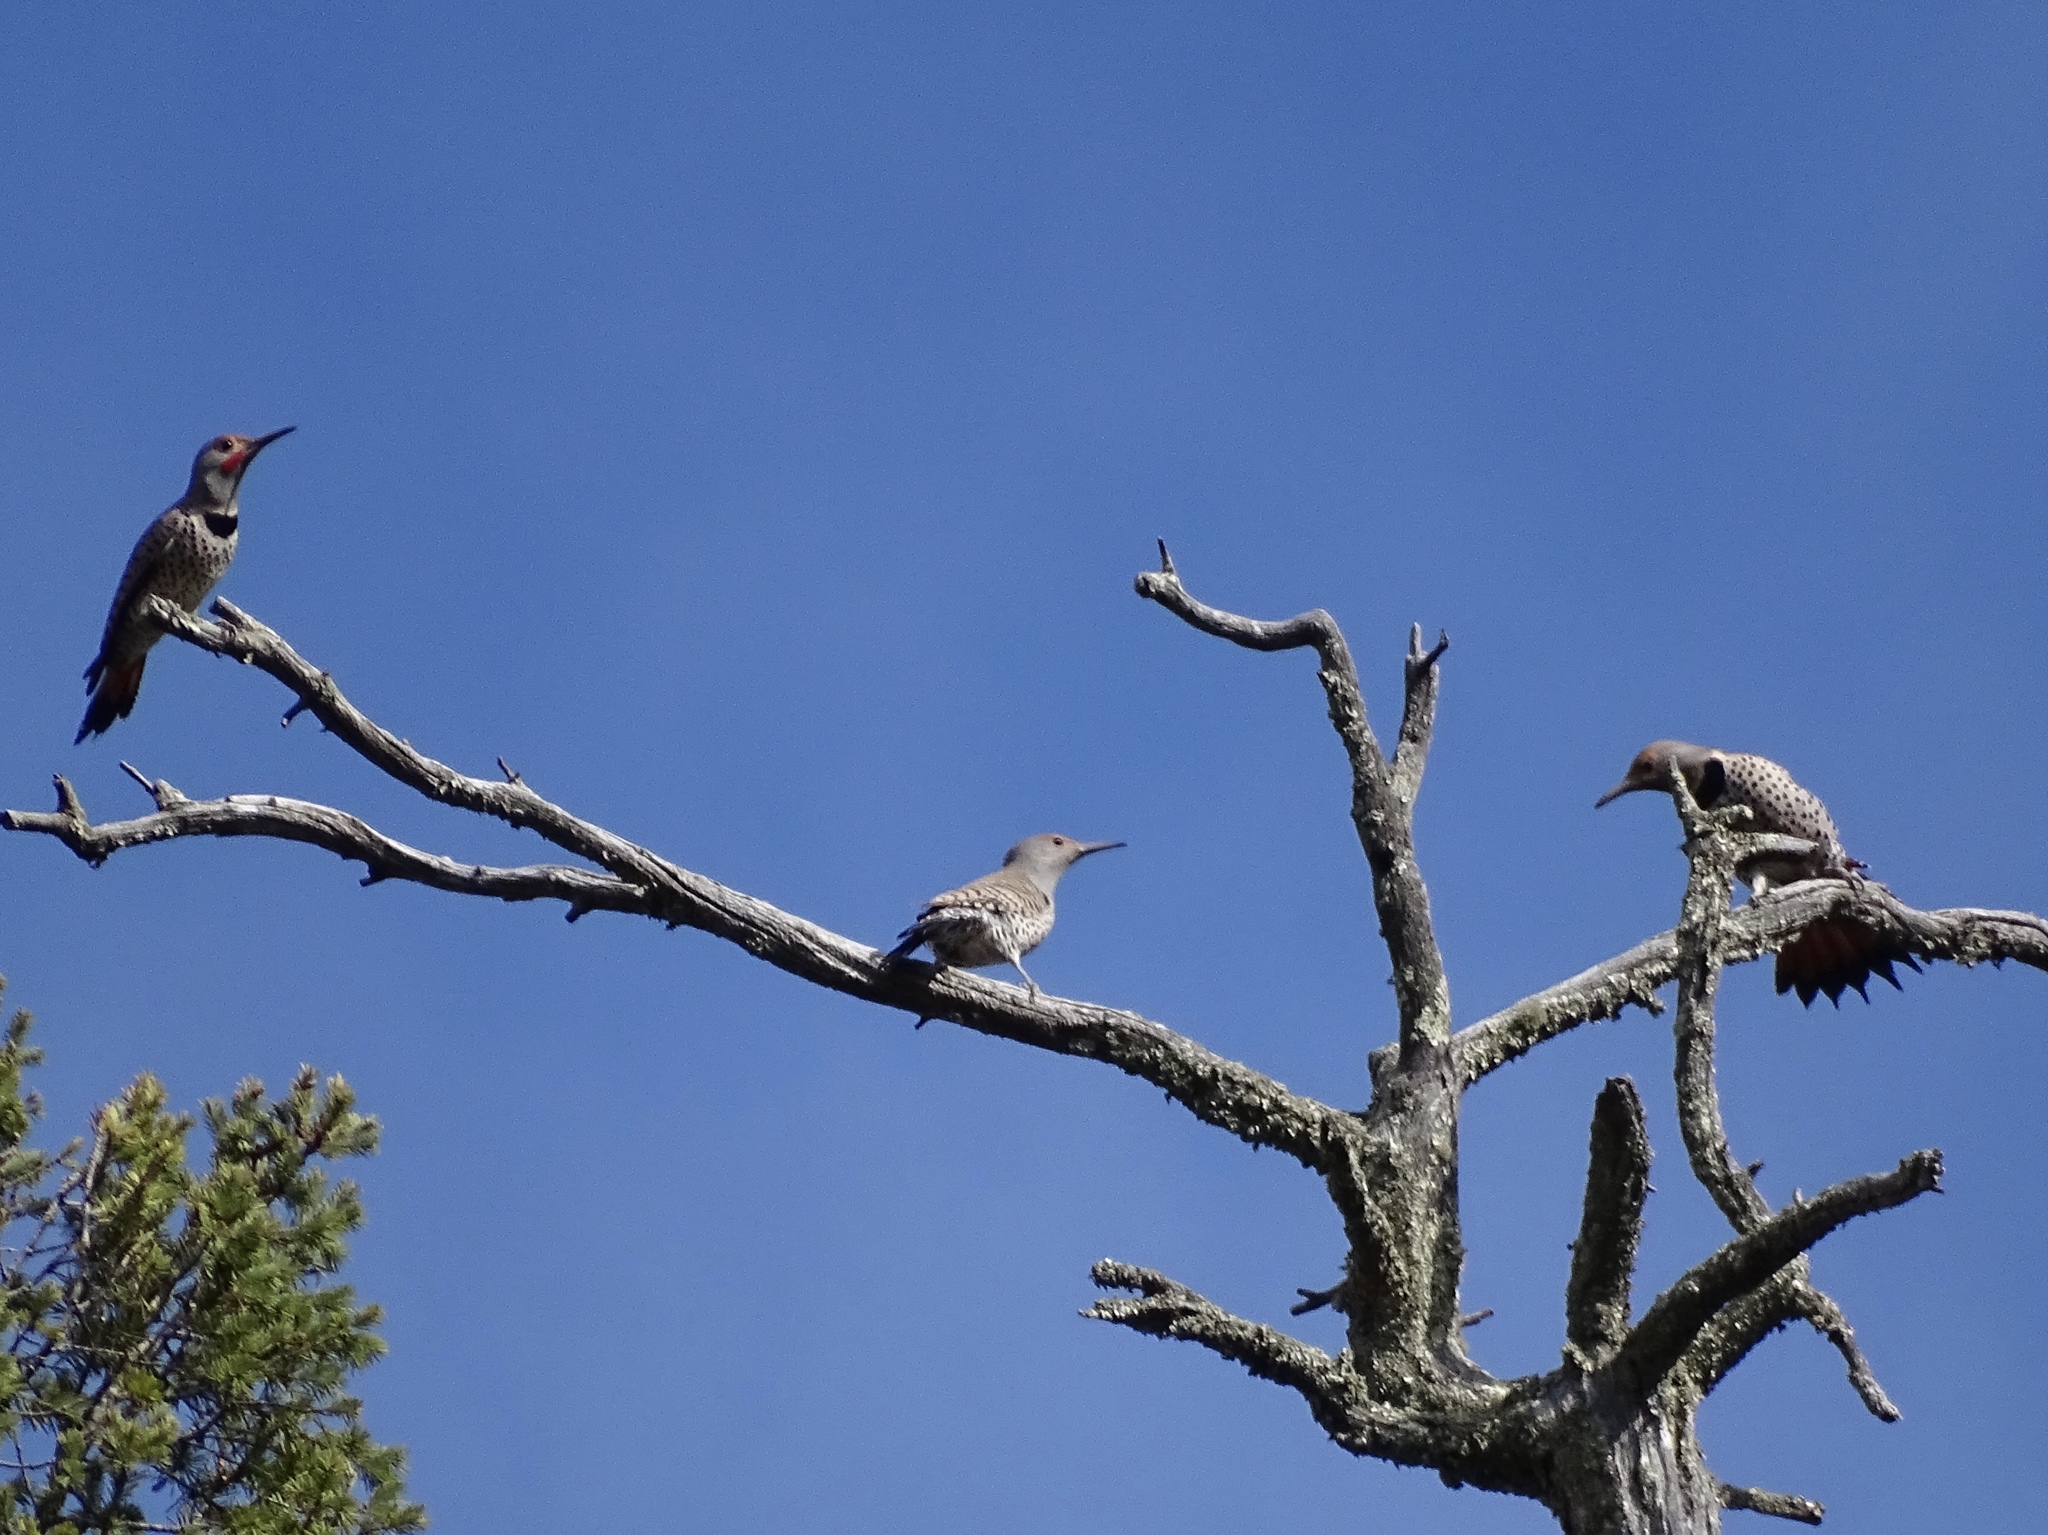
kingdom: Animalia
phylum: Chordata
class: Aves
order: Piciformes
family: Picidae
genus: Colaptes
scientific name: Colaptes auratus
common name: Northern flicker
